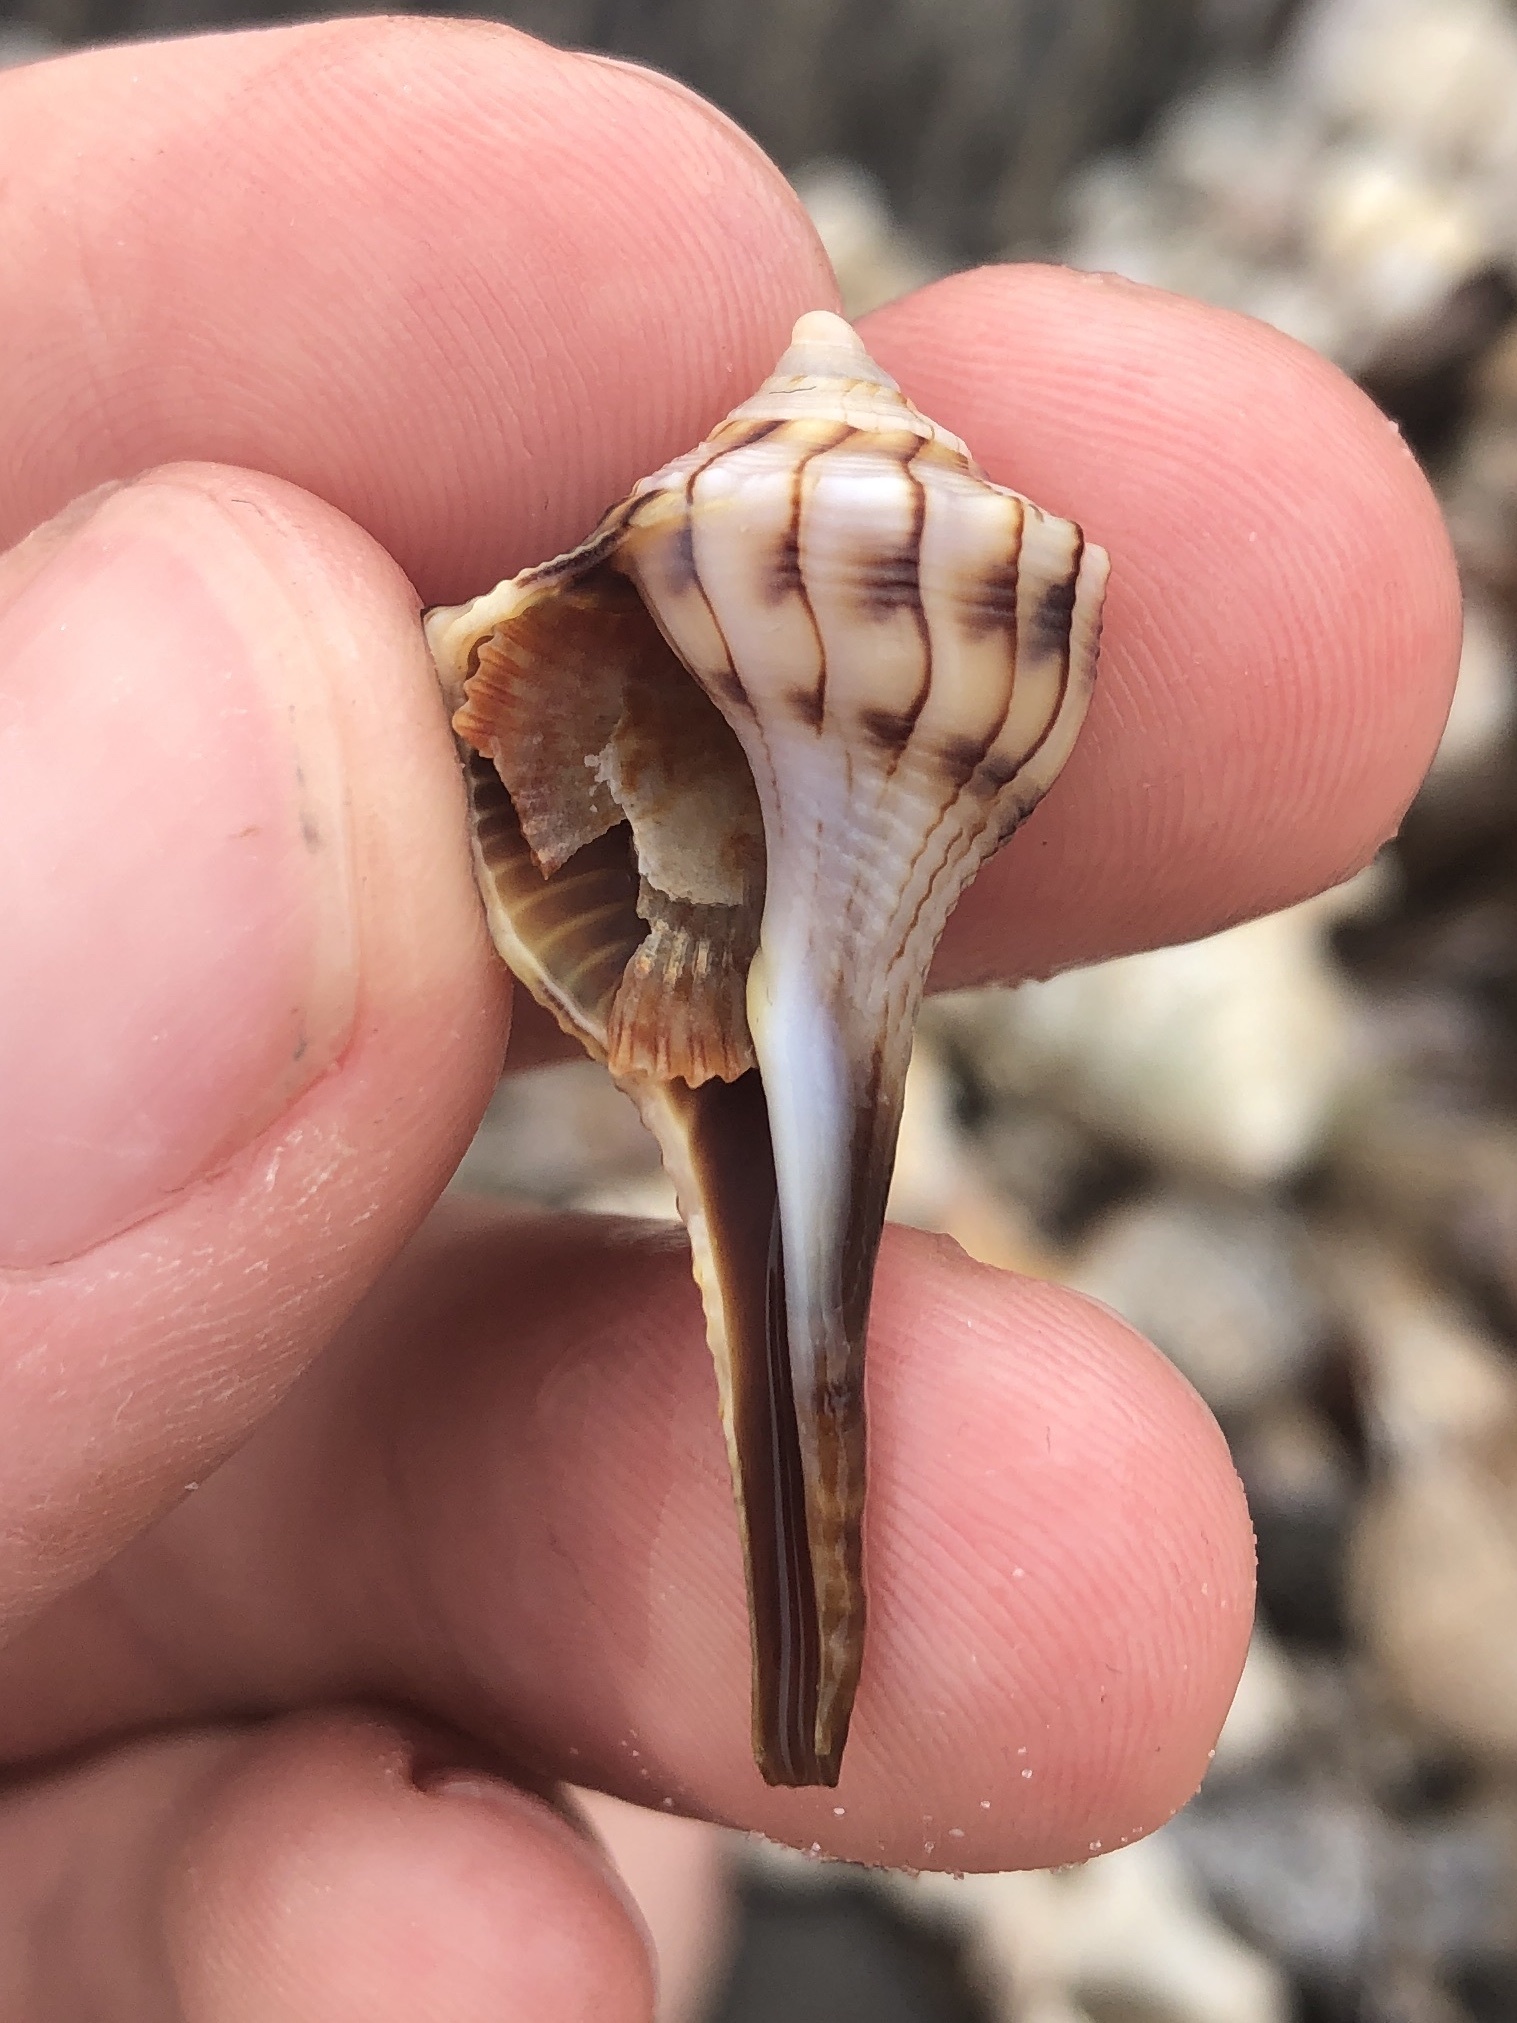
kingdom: Animalia
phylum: Mollusca
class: Gastropoda
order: Neogastropoda
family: Busyconidae
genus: Sinistrofulgur
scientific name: Sinistrofulgur sinistrum
